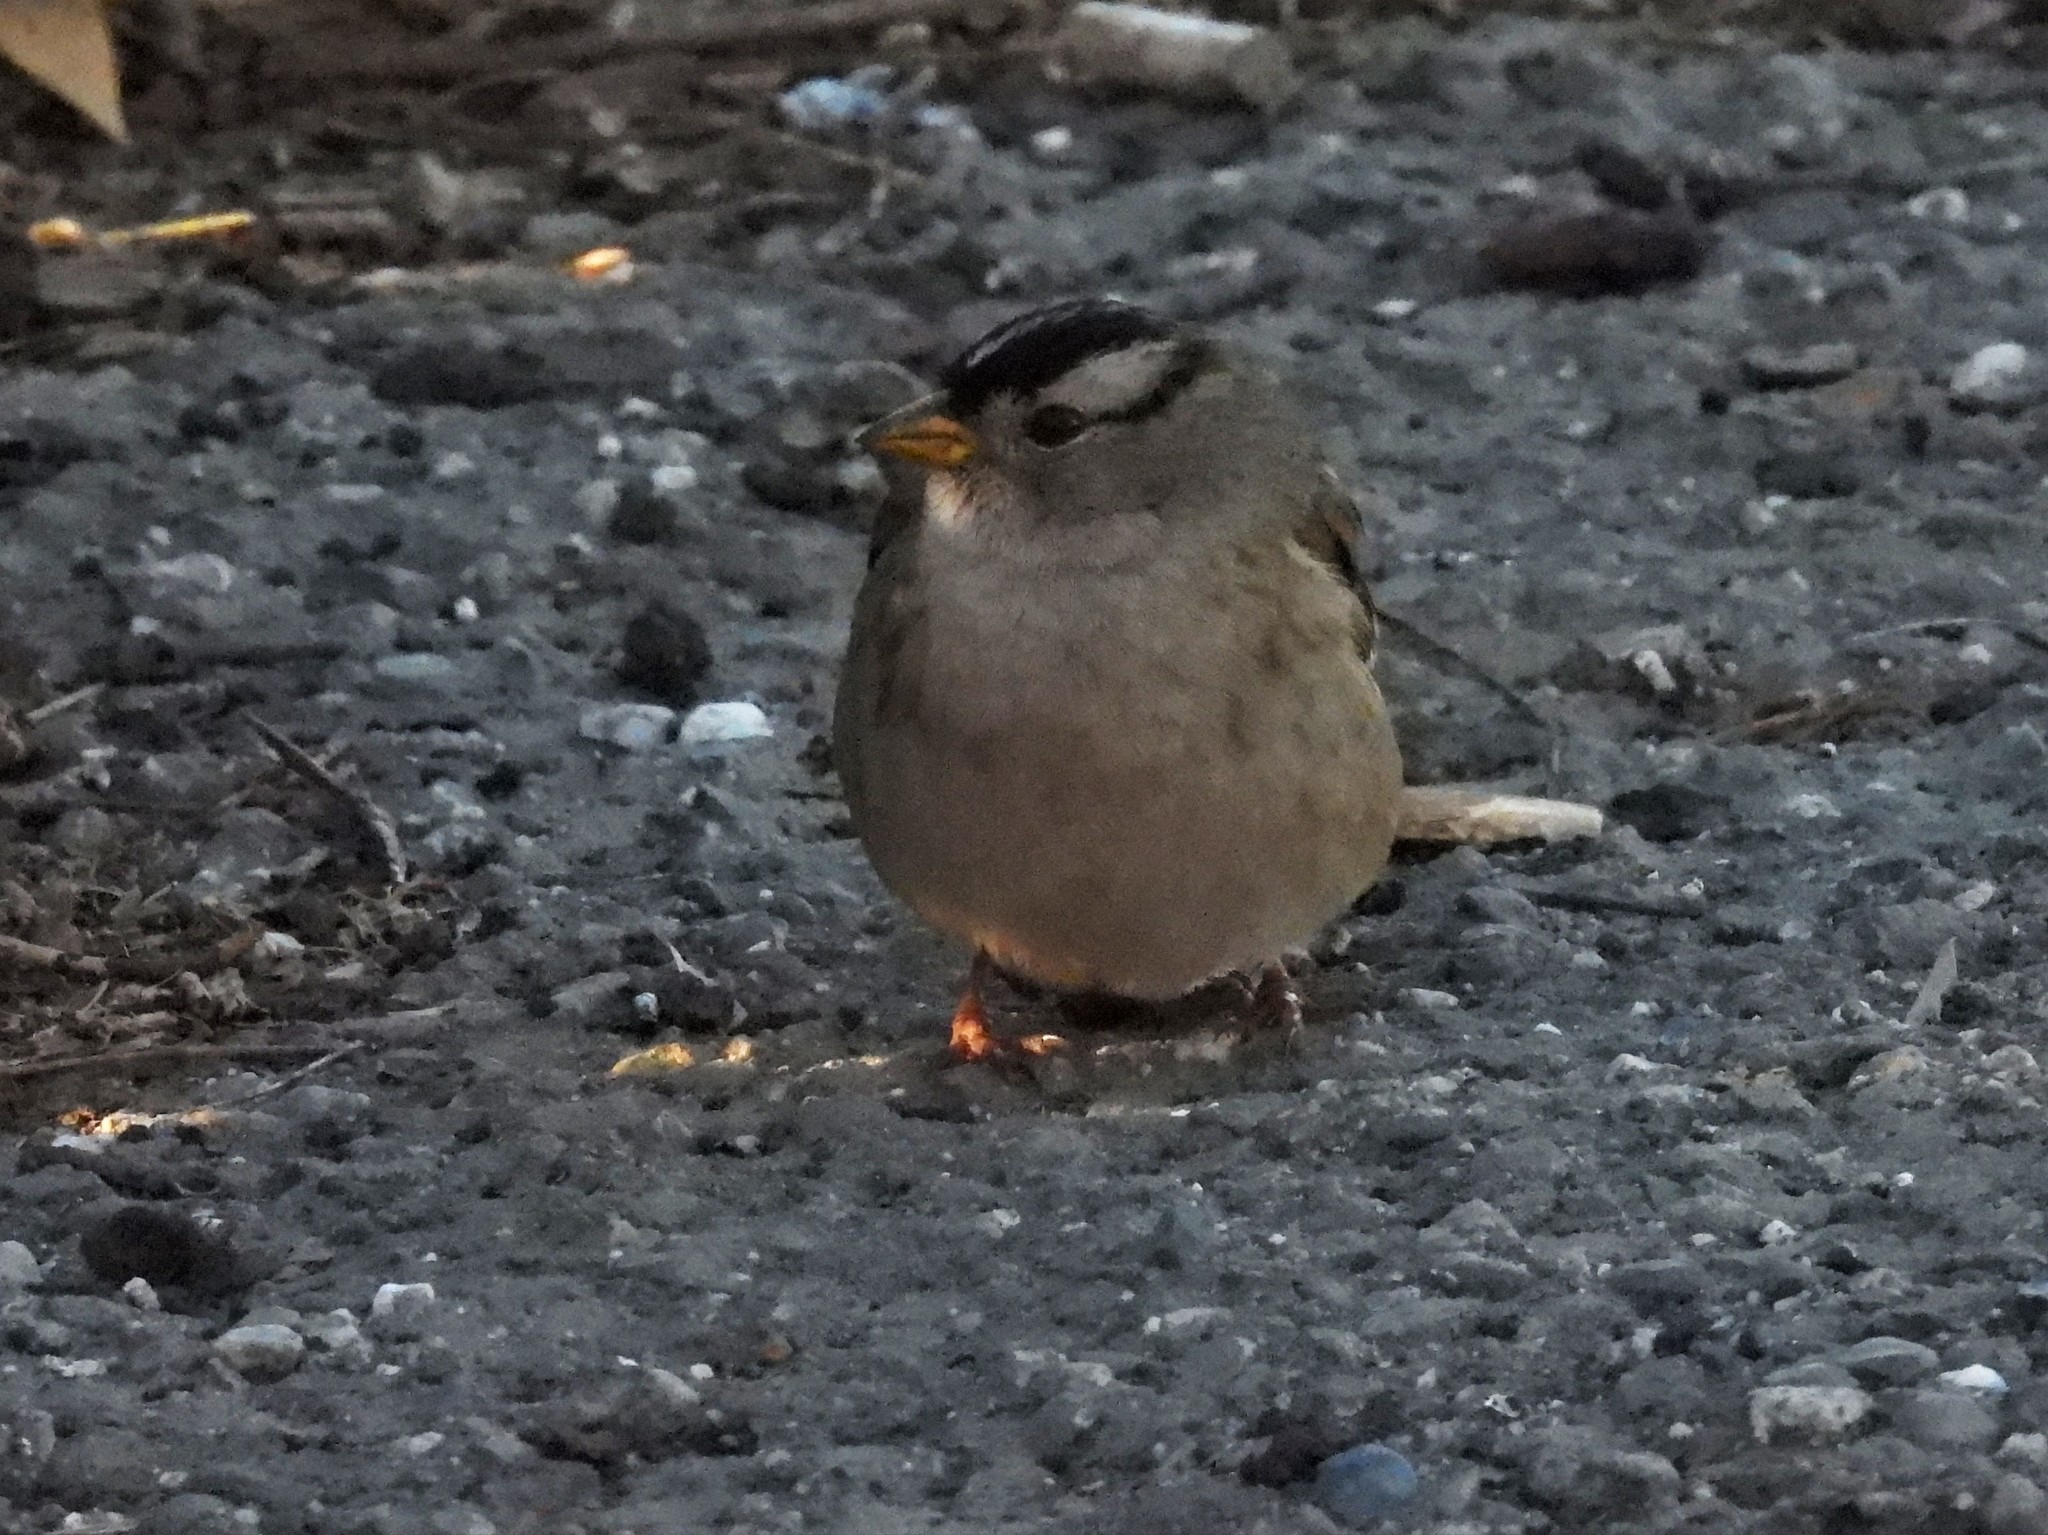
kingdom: Animalia
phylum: Chordata
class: Aves
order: Passeriformes
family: Passerellidae
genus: Zonotrichia
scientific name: Zonotrichia leucophrys
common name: White-crowned sparrow
